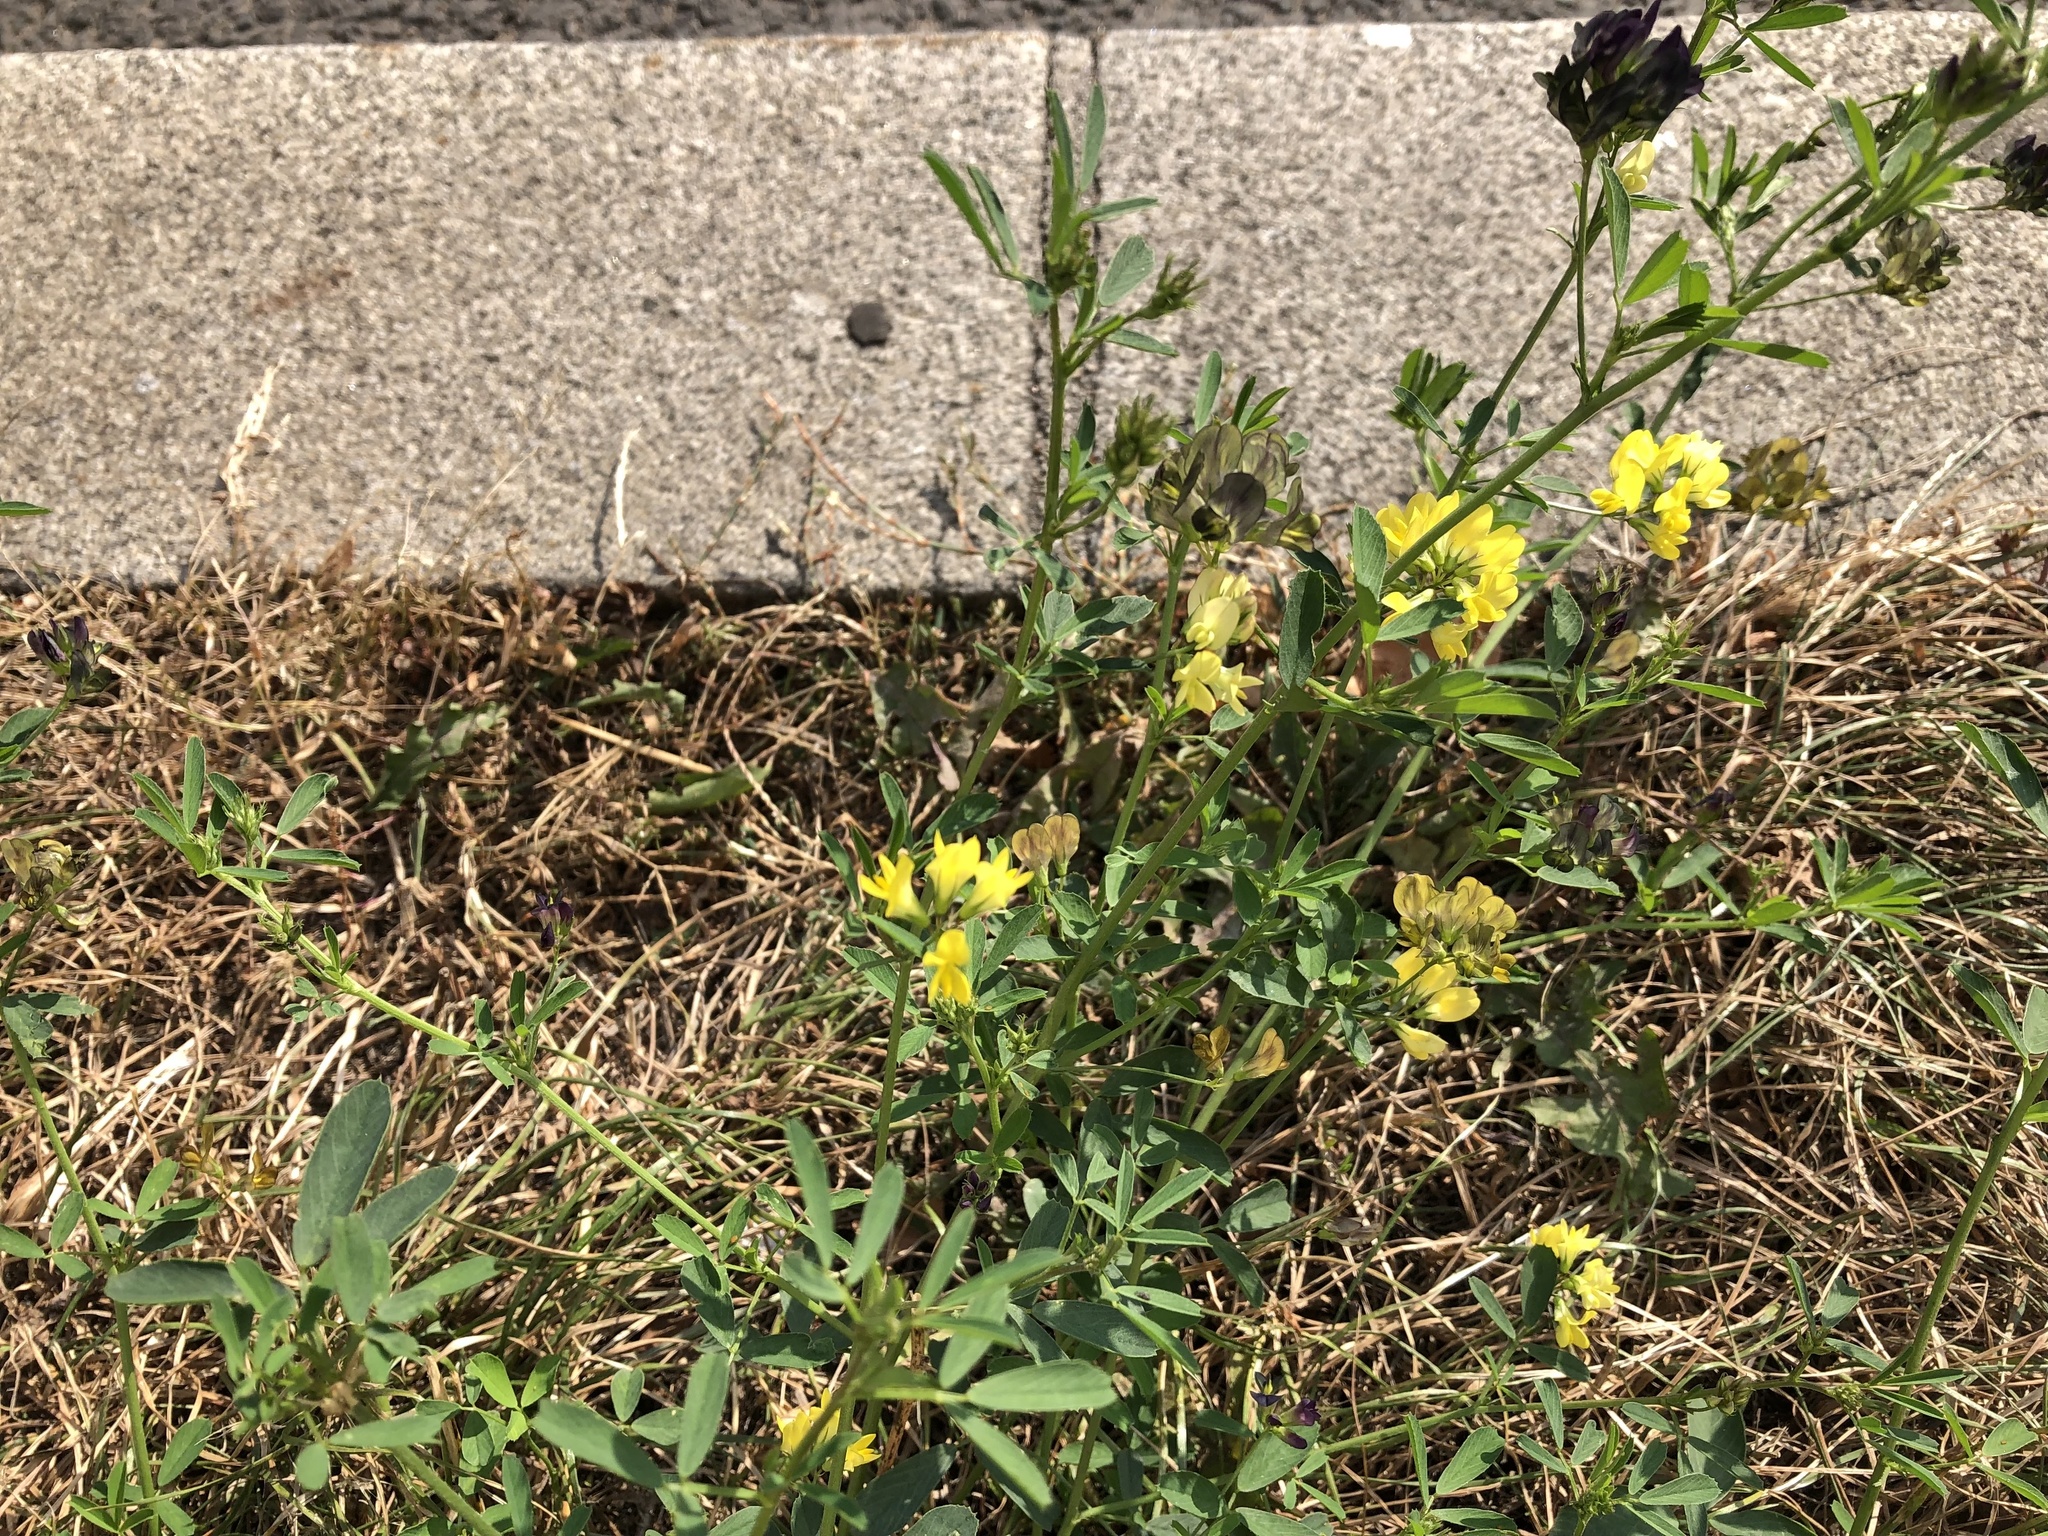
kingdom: Plantae
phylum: Tracheophyta
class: Magnoliopsida
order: Fabales
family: Fabaceae
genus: Medicago
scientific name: Medicago falcata
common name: Sickle medick
